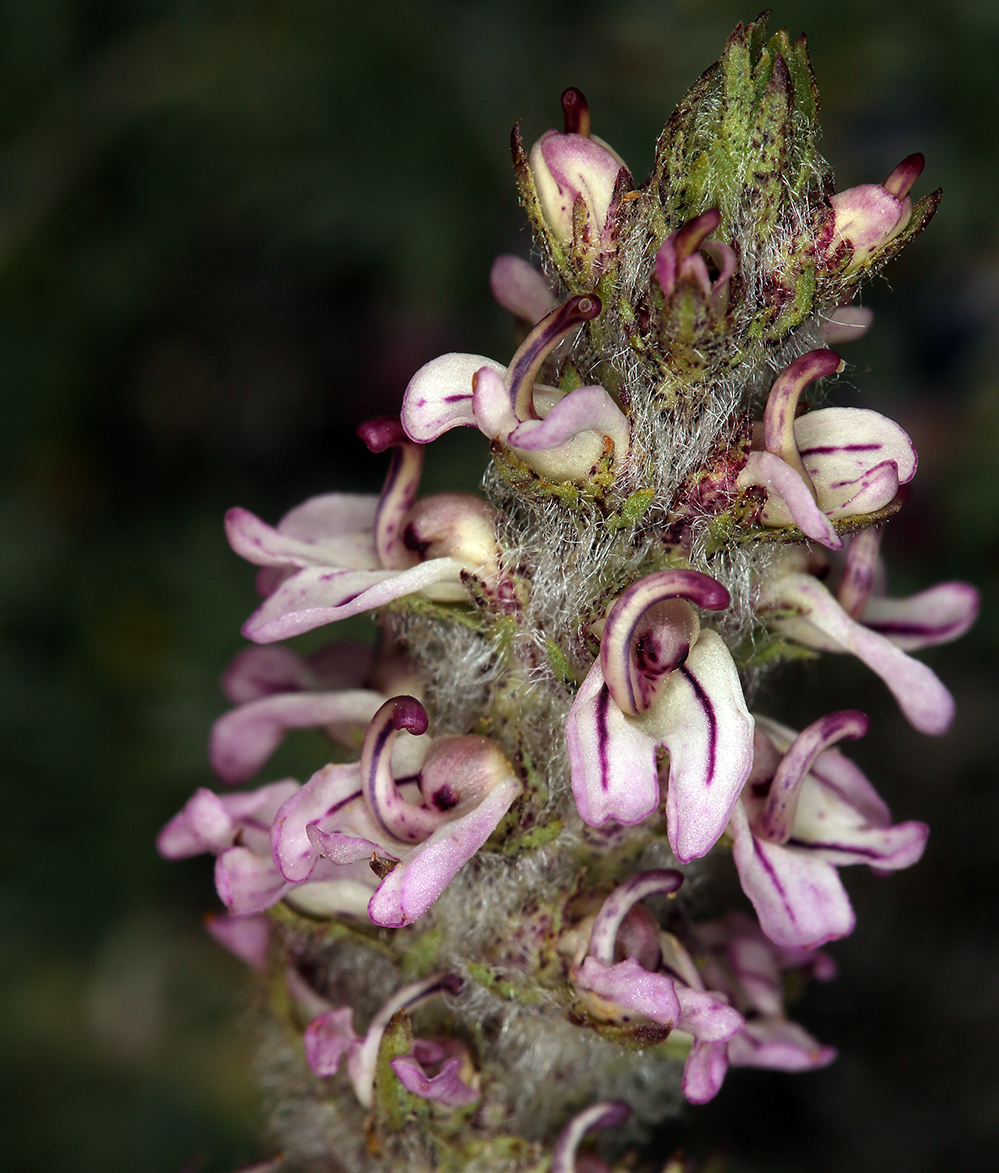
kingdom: Plantae
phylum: Tracheophyta
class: Magnoliopsida
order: Lamiales
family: Orobanchaceae
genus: Pedicularis
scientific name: Pedicularis attollens
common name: Slender pedicularis
